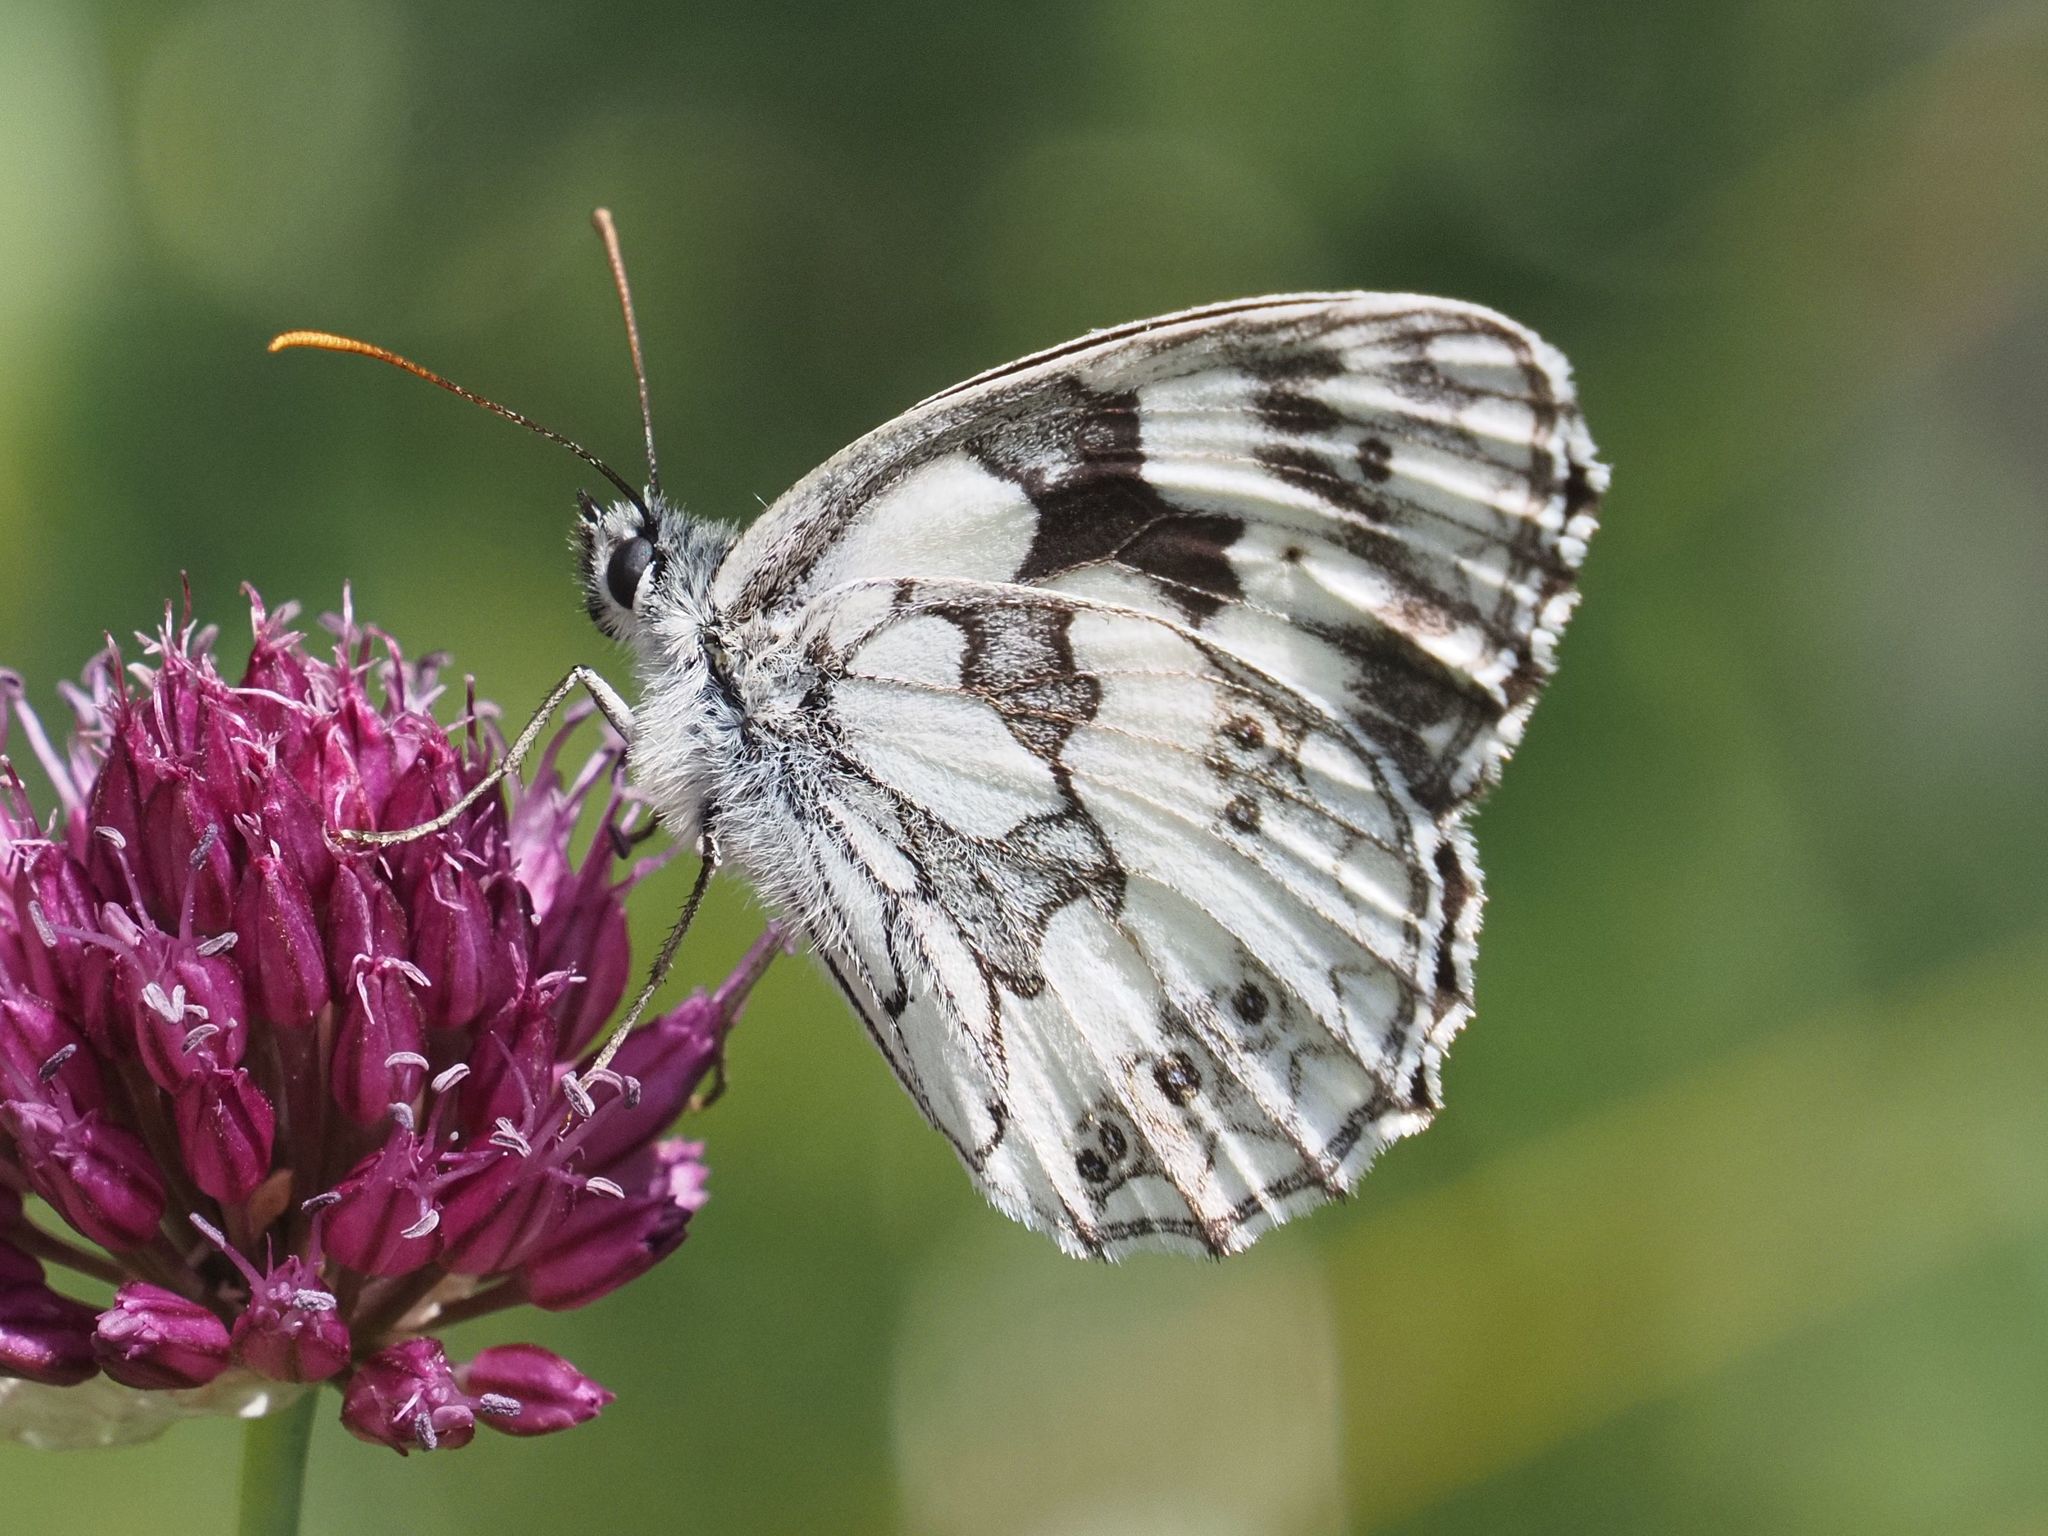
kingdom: Animalia
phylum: Arthropoda
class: Insecta
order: Lepidoptera
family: Nymphalidae
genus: Melanargia
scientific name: Melanargia galathea
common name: Marbled white
